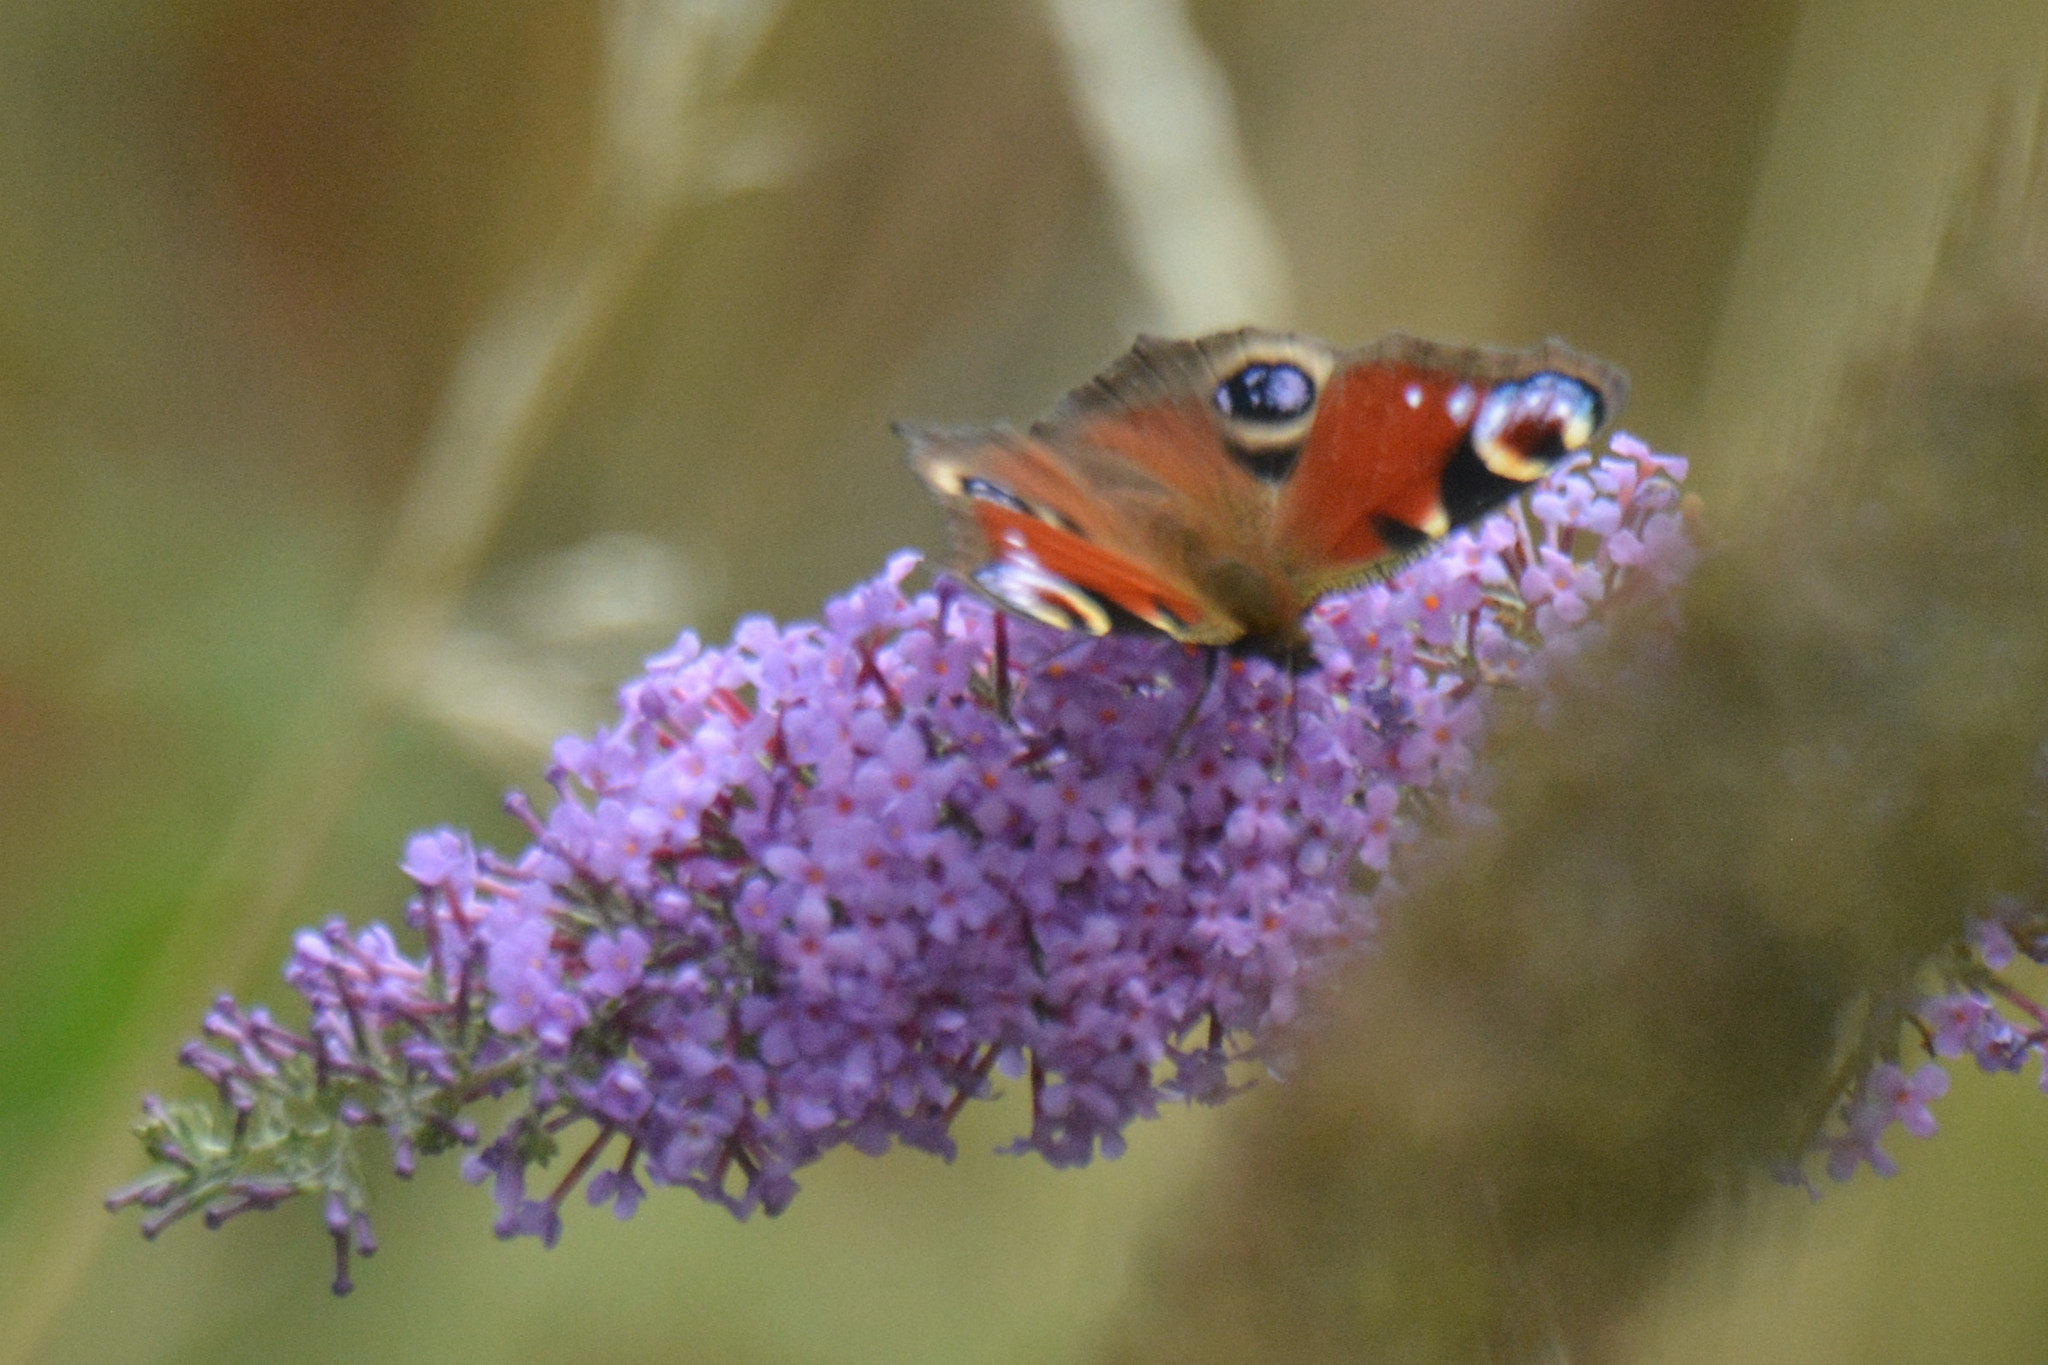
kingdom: Animalia
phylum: Arthropoda
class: Insecta
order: Lepidoptera
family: Nymphalidae
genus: Aglais
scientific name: Aglais io
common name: Peacock
